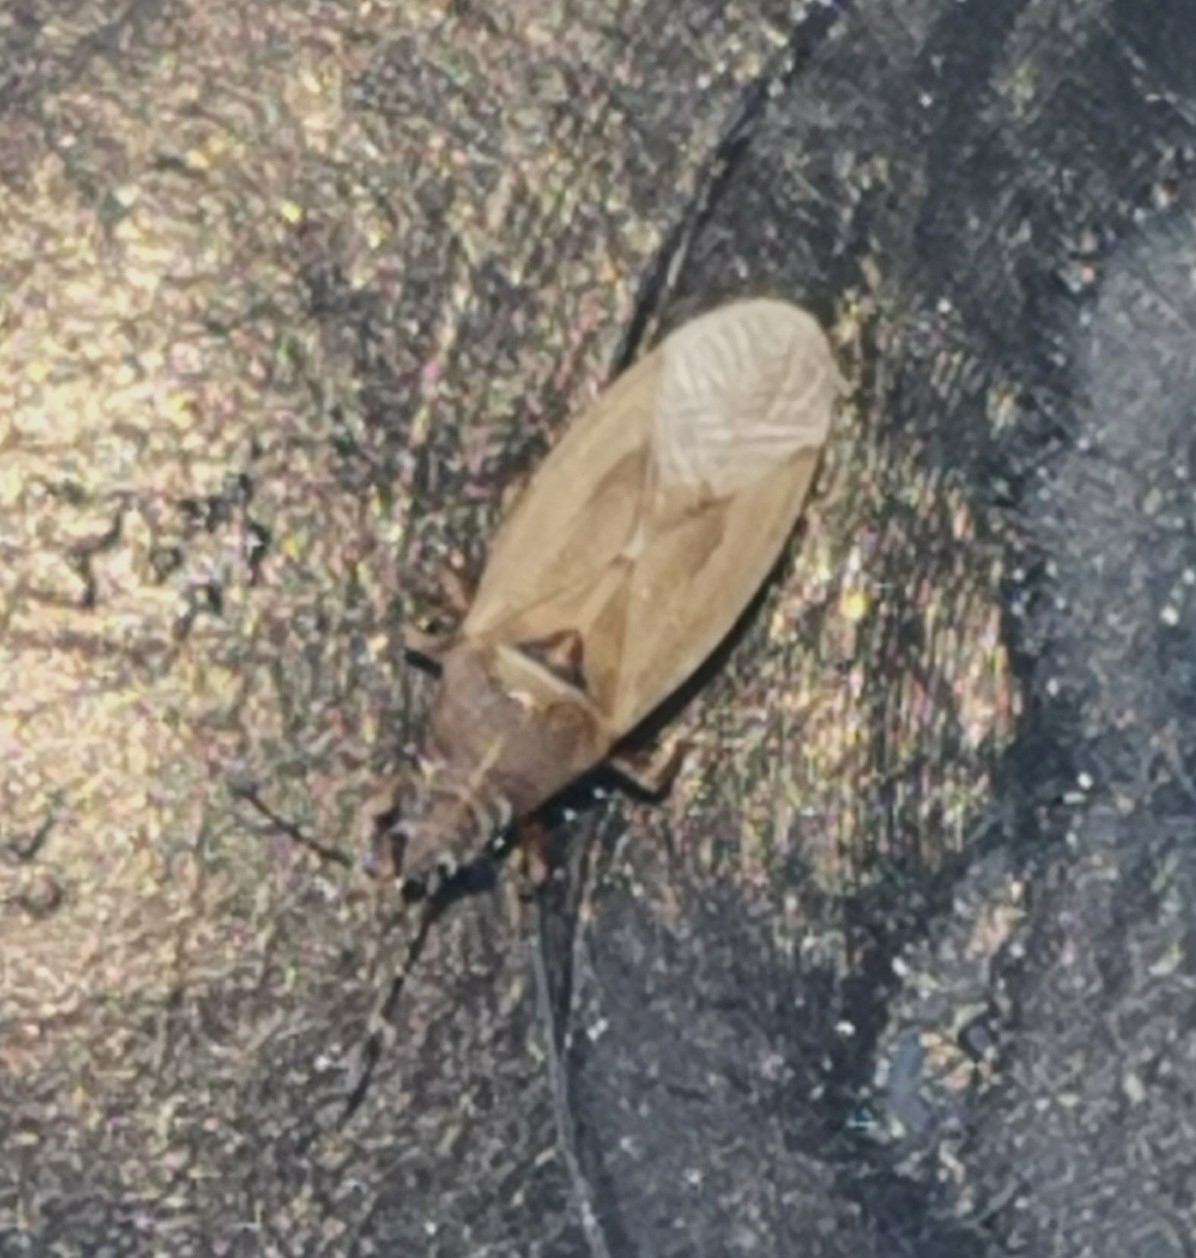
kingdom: Animalia
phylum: Arthropoda
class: Insecta
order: Hemiptera
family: Cymidae
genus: Cymus
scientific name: Cymus glandicolor
